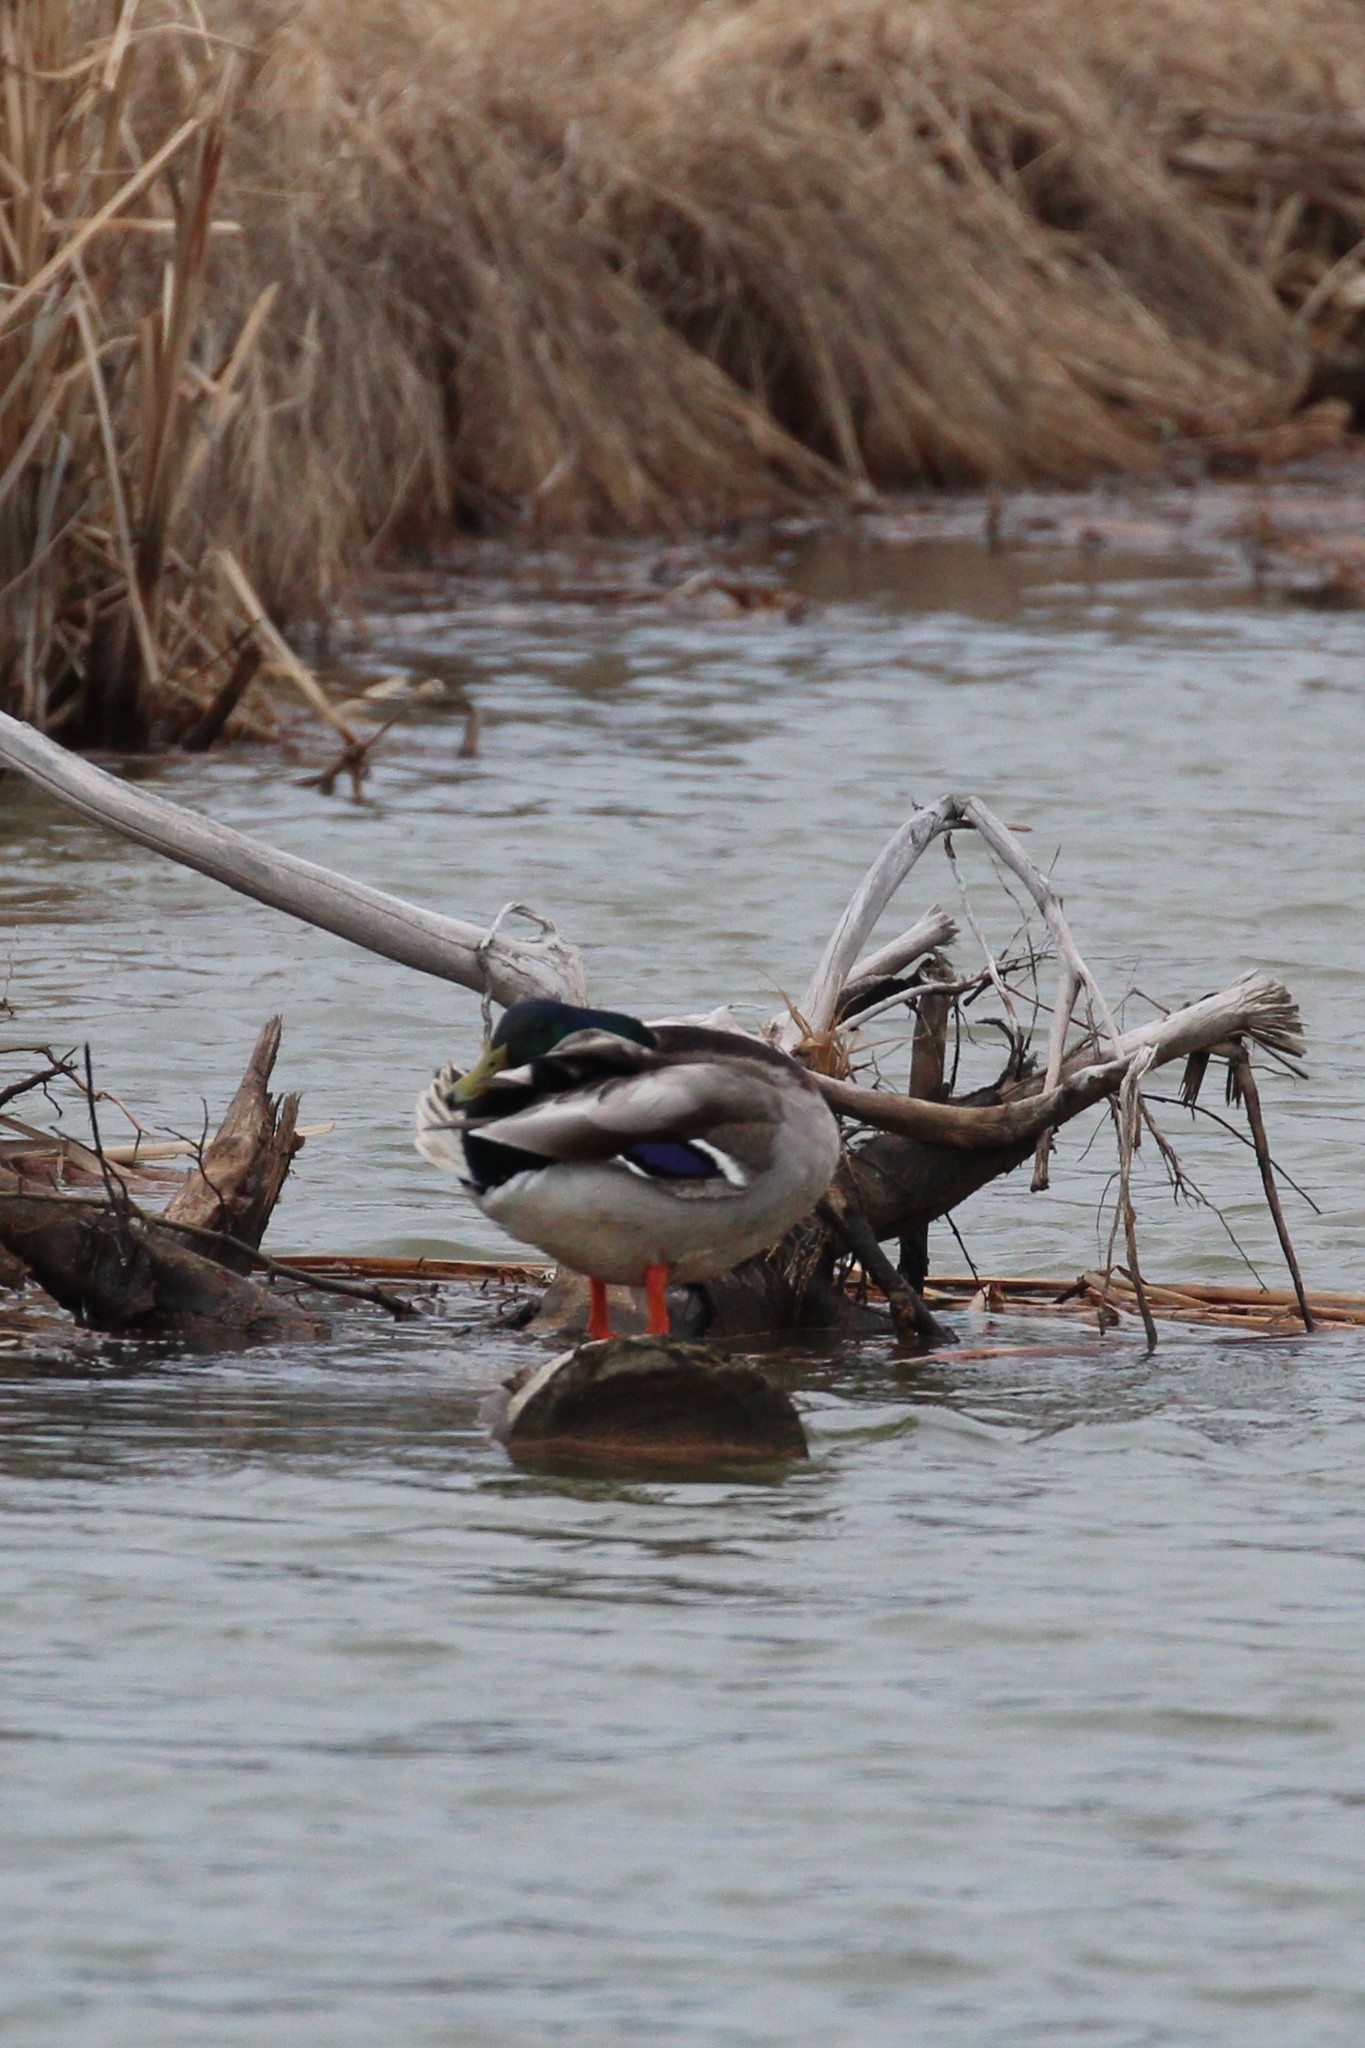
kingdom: Animalia
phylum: Chordata
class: Aves
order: Anseriformes
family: Anatidae
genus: Anas
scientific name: Anas platyrhynchos
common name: Mallard
